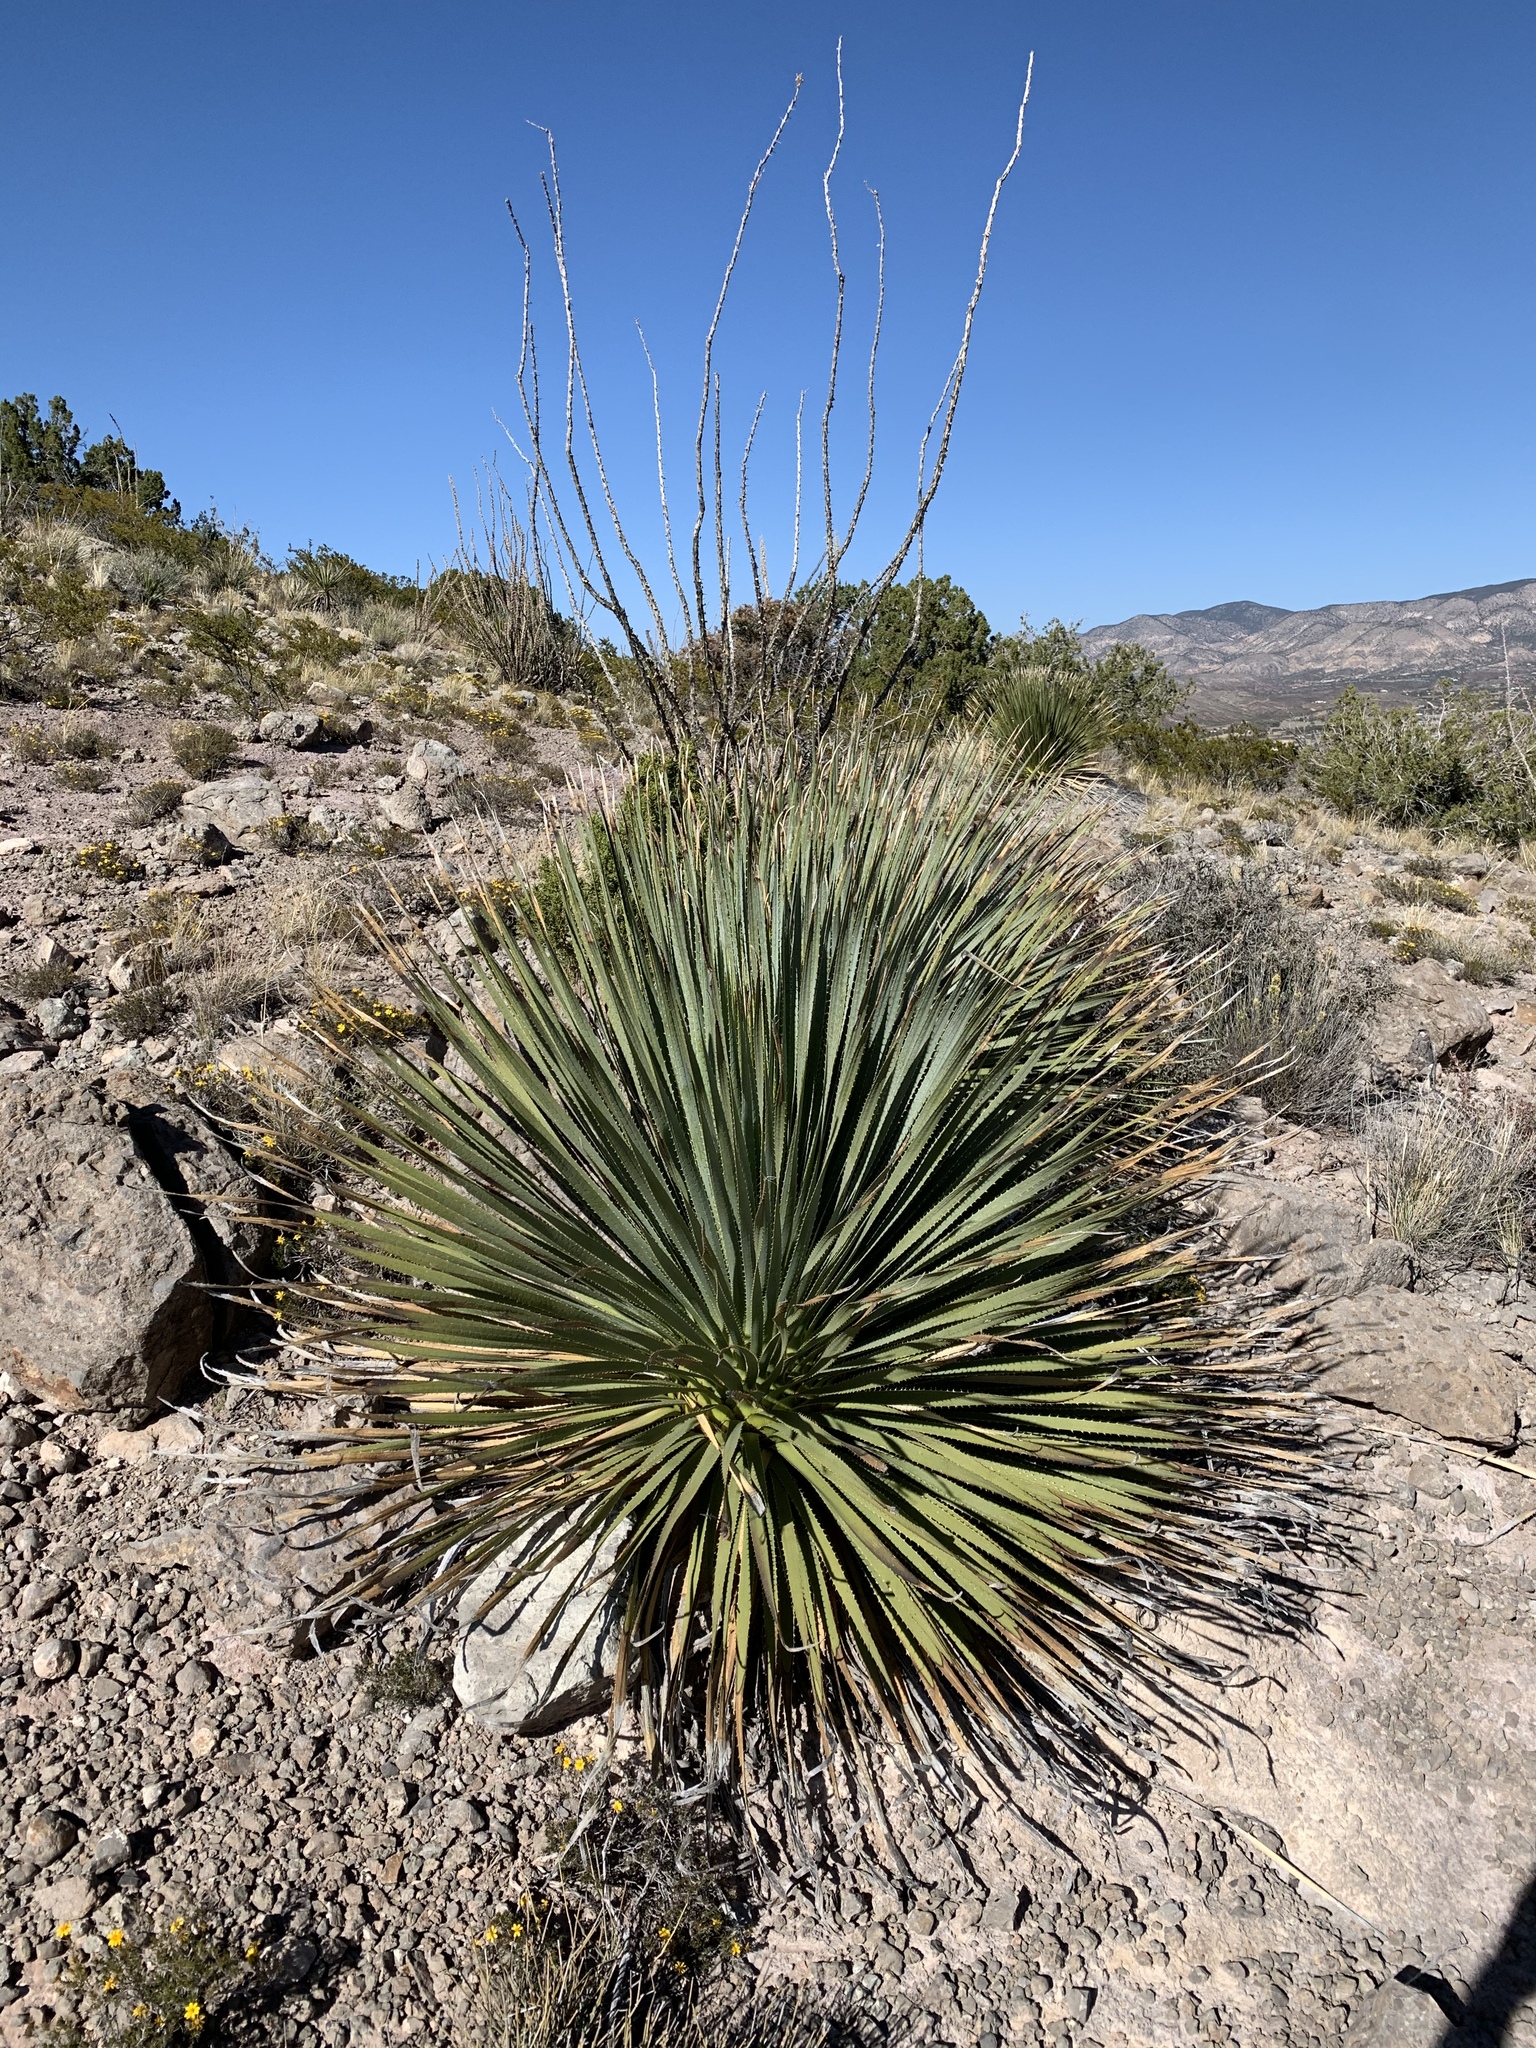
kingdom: Plantae
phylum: Tracheophyta
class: Liliopsida
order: Asparagales
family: Asparagaceae
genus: Dasylirion
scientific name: Dasylirion wheeleri
